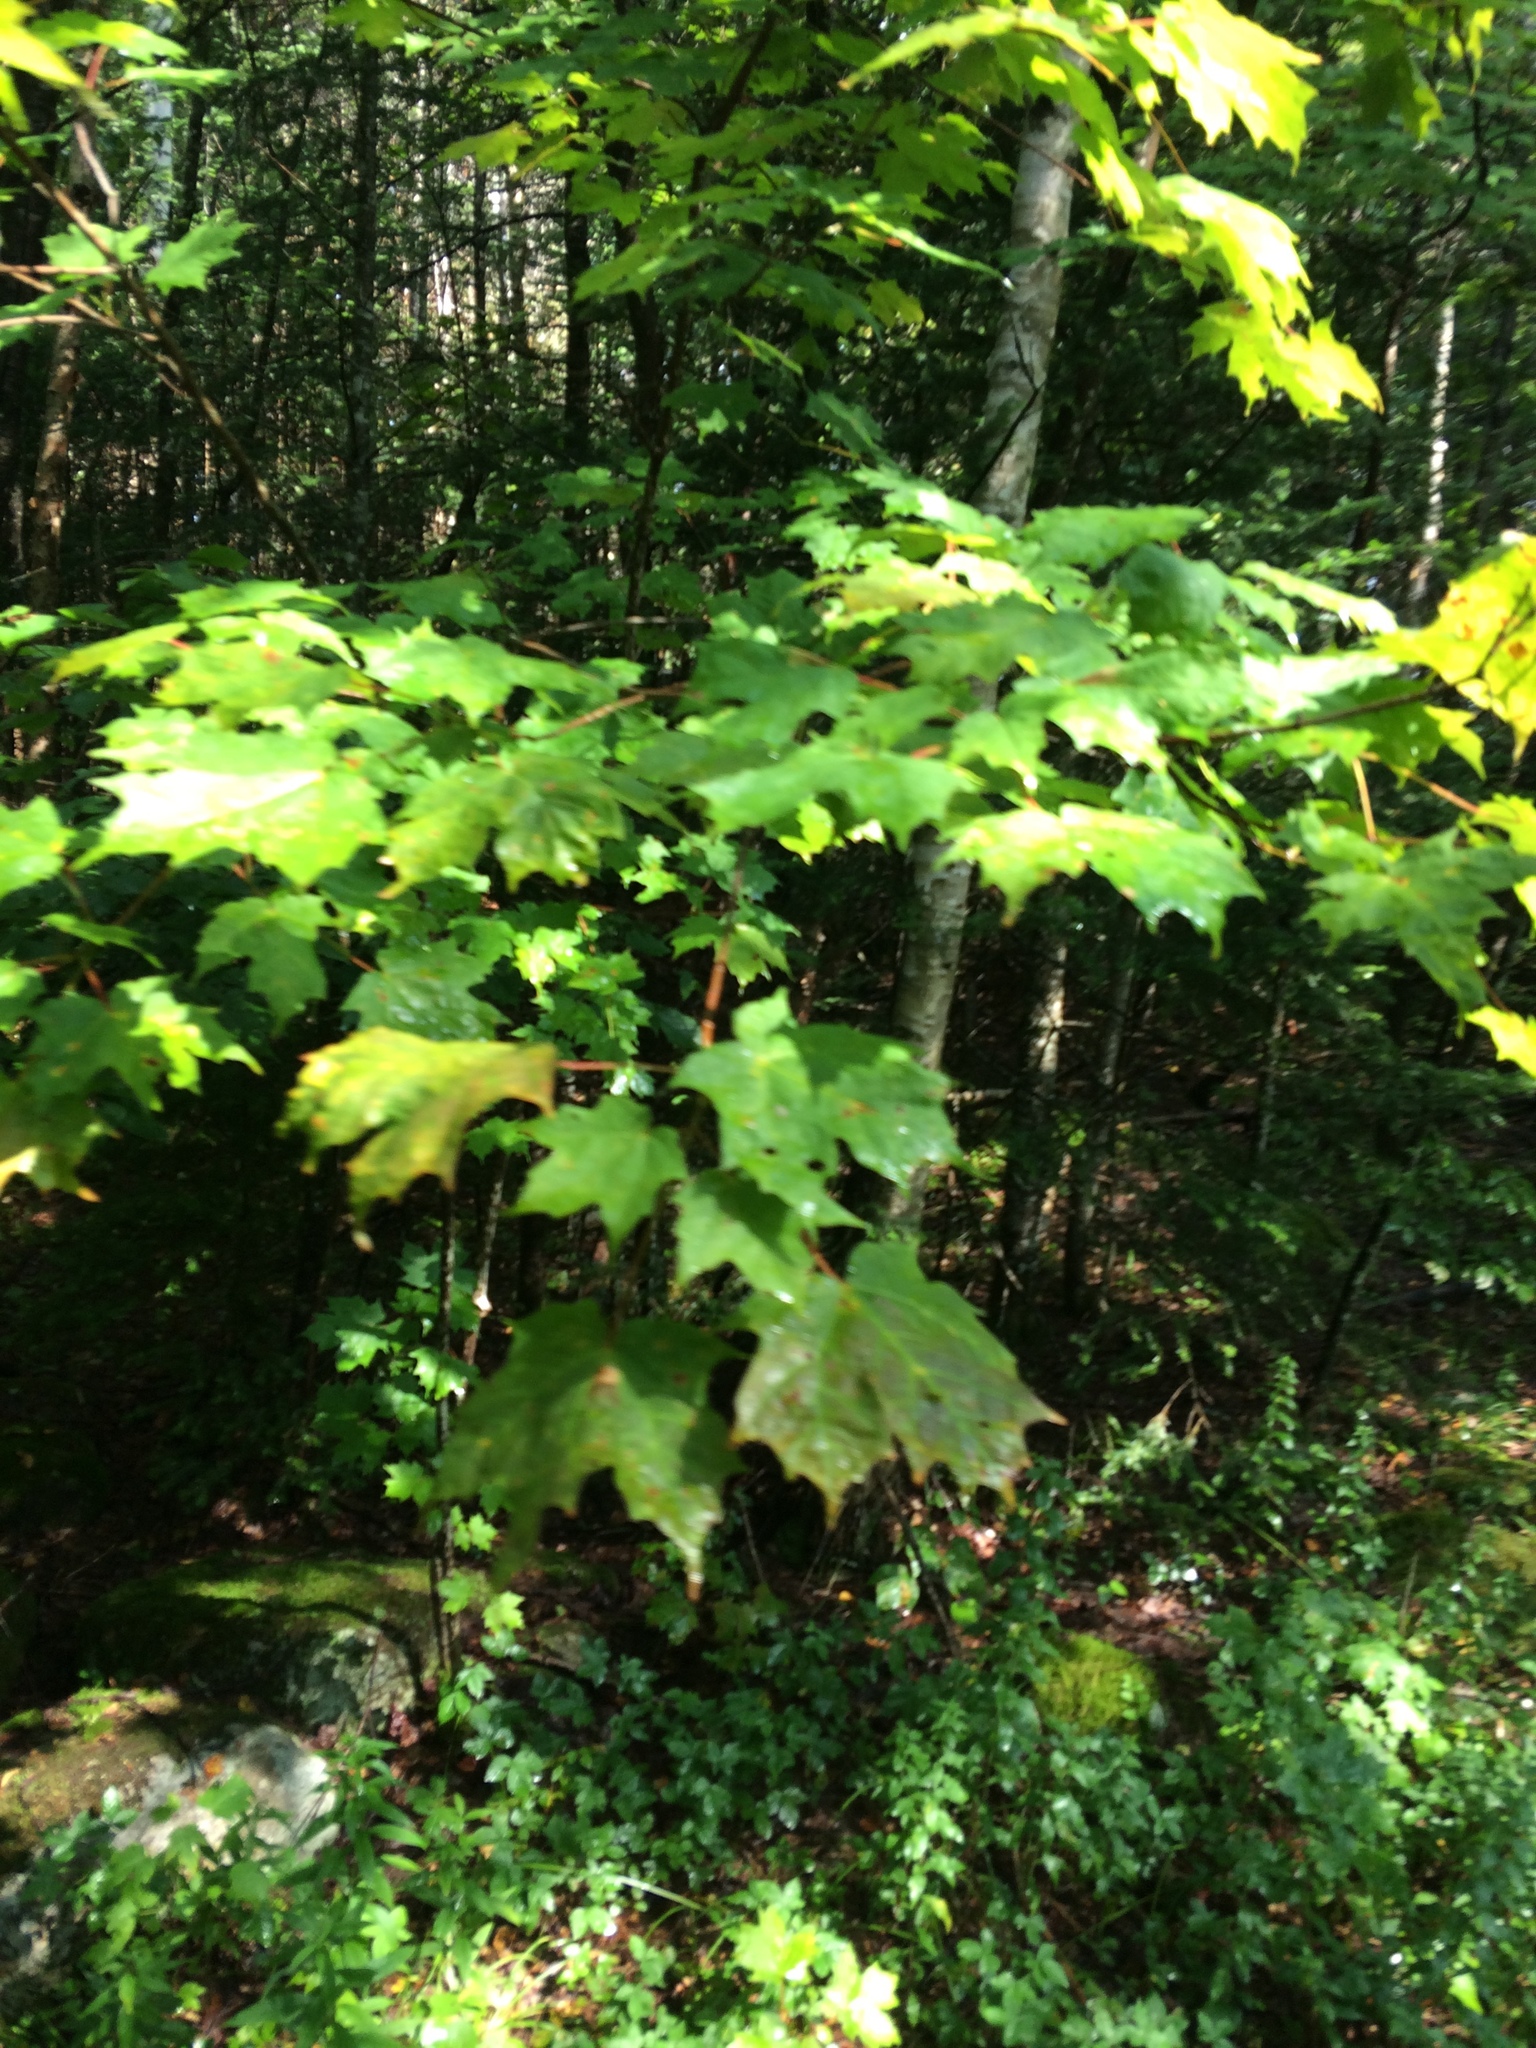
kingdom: Plantae
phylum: Tracheophyta
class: Magnoliopsida
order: Sapindales
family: Sapindaceae
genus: Acer
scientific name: Acer saccharum
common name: Sugar maple
